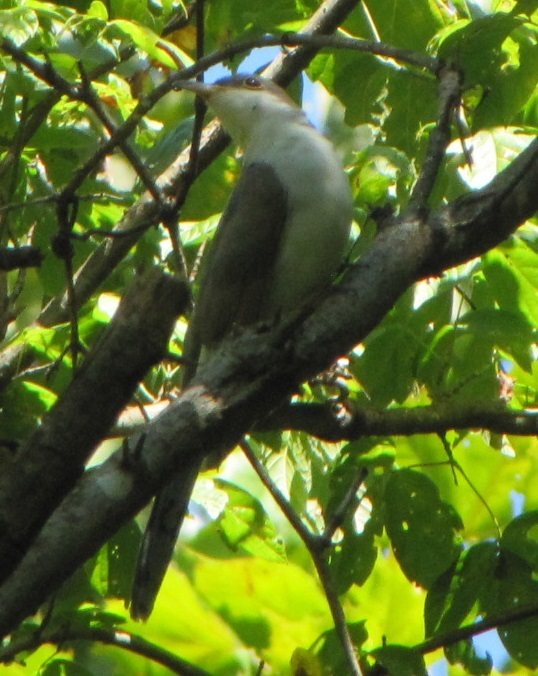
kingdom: Animalia
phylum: Chordata
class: Aves
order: Cuculiformes
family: Cuculidae
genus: Coccyzus
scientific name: Coccyzus americanus
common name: Yellow-billed cuckoo
